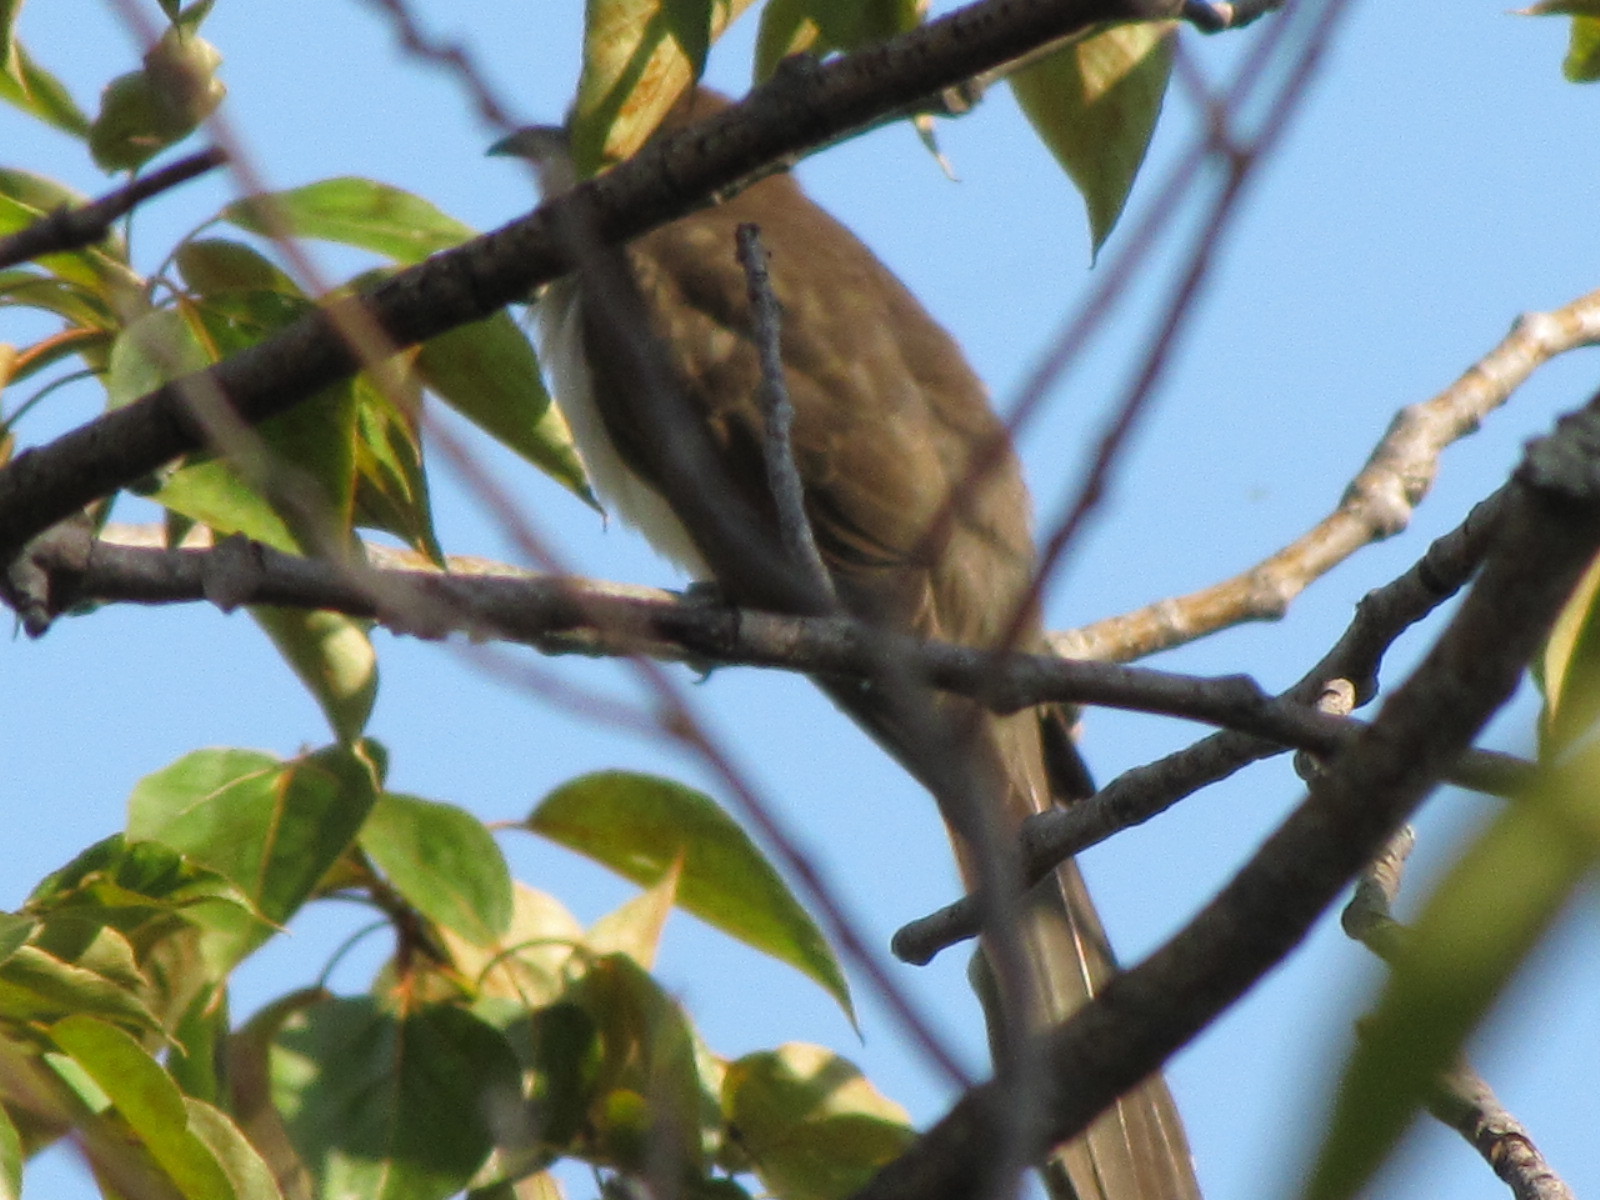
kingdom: Animalia
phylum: Chordata
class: Aves
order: Cuculiformes
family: Cuculidae
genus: Coccyzus
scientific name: Coccyzus erythropthalmus
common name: Black-billed cuckoo
